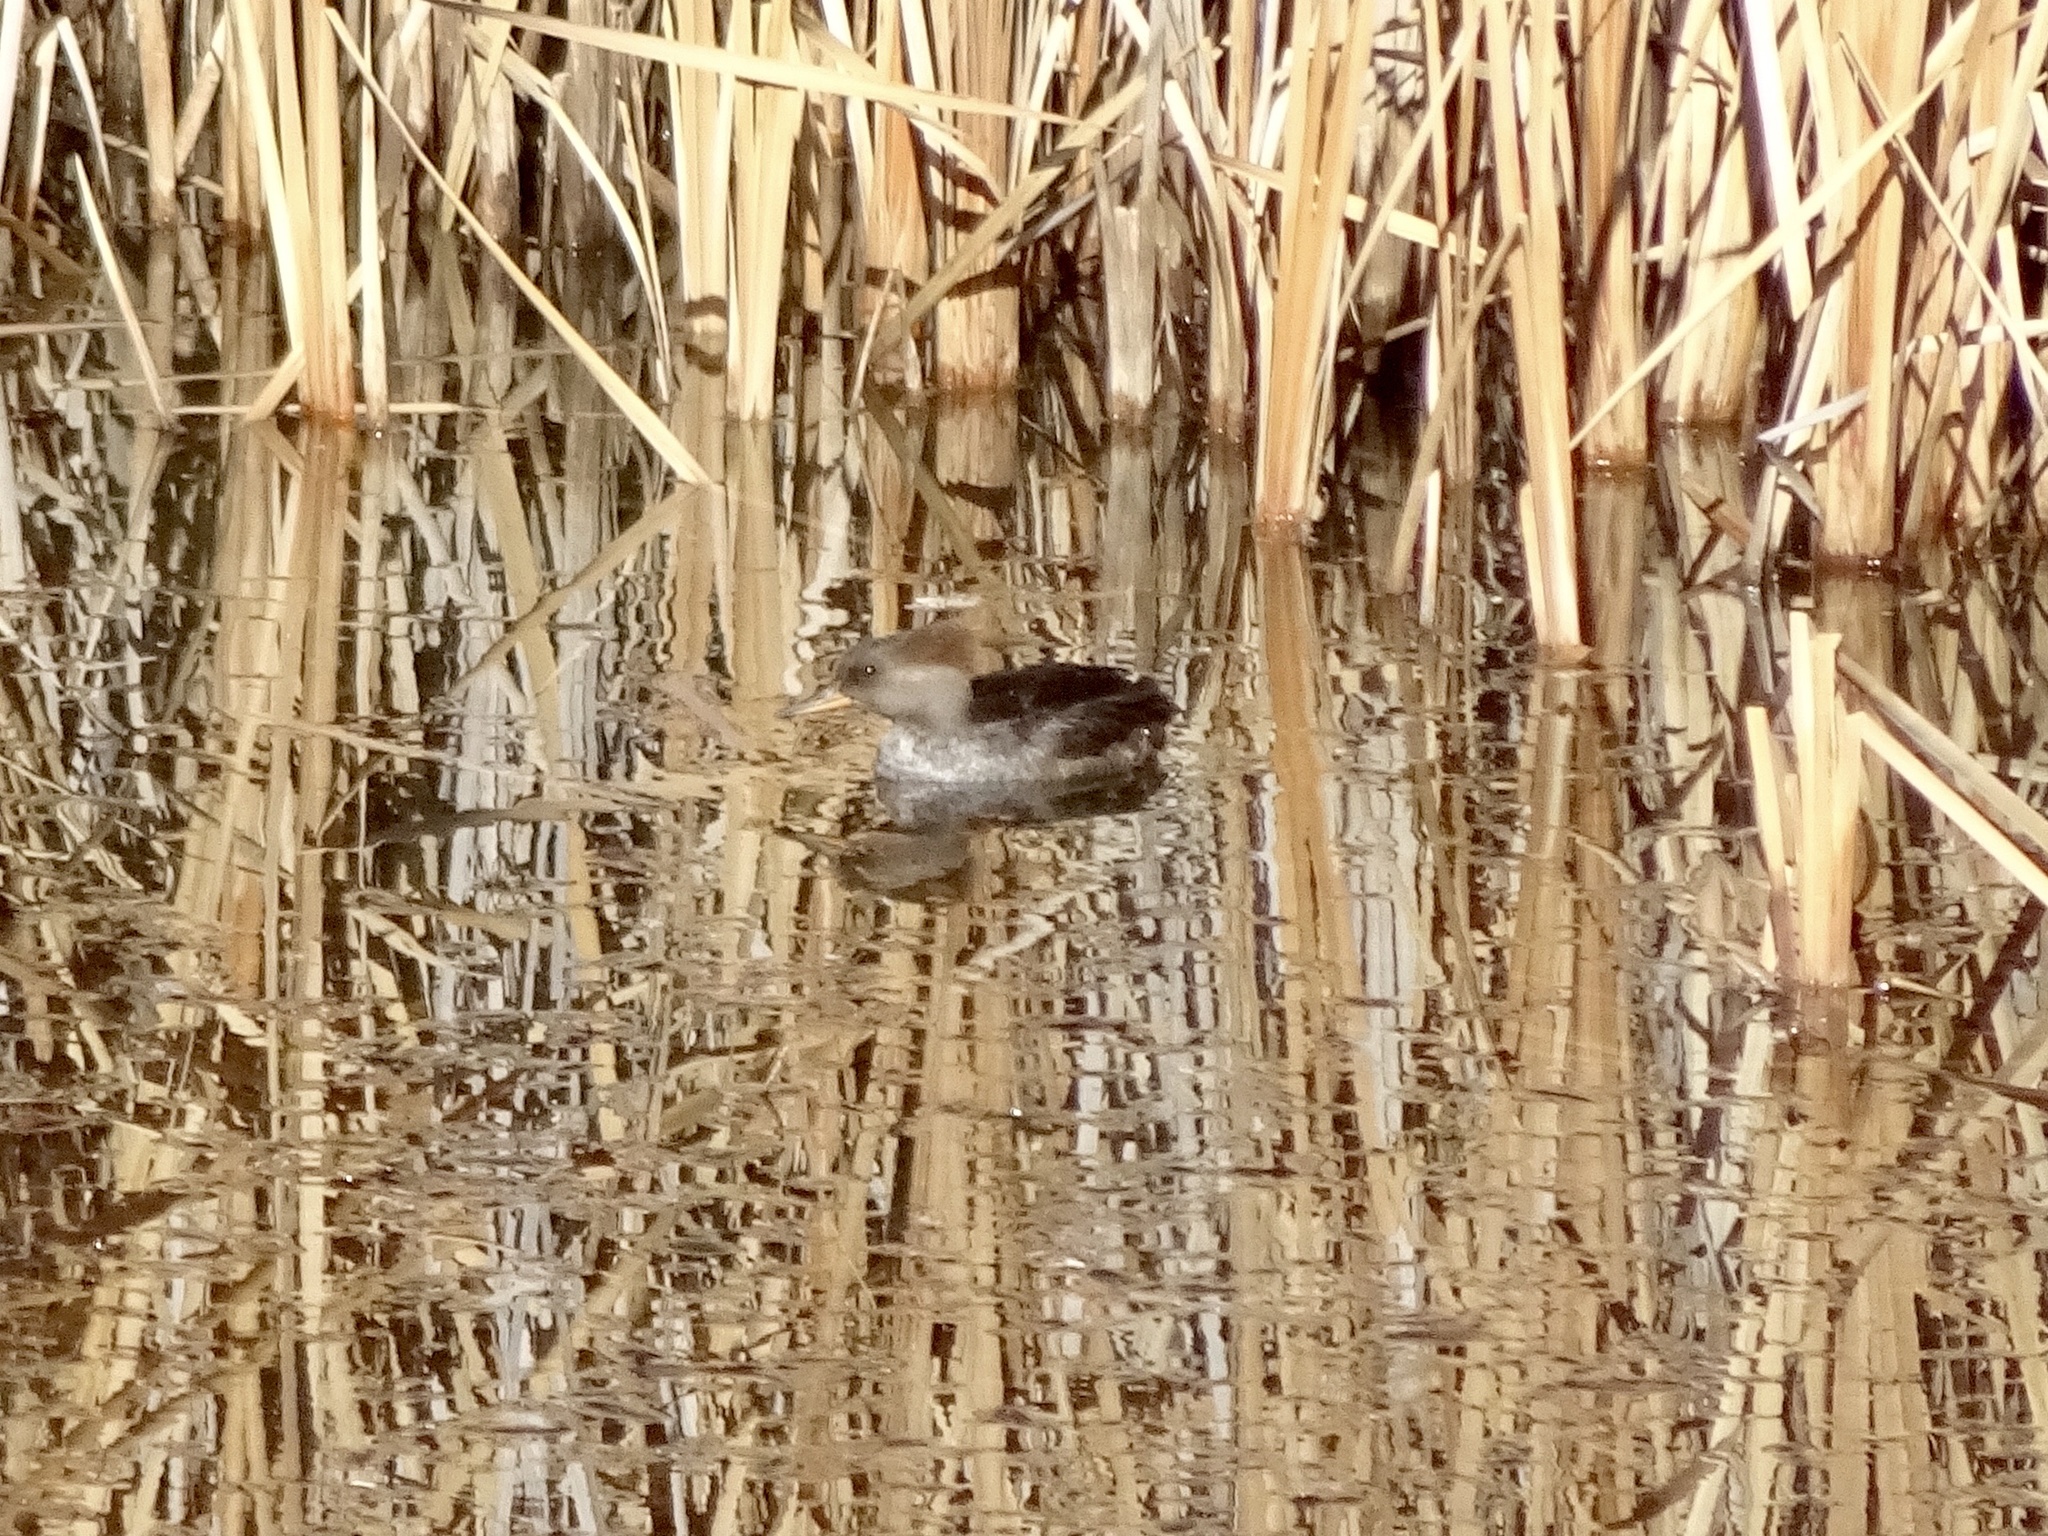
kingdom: Animalia
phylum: Chordata
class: Aves
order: Anseriformes
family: Anatidae
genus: Lophodytes
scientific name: Lophodytes cucullatus
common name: Hooded merganser
